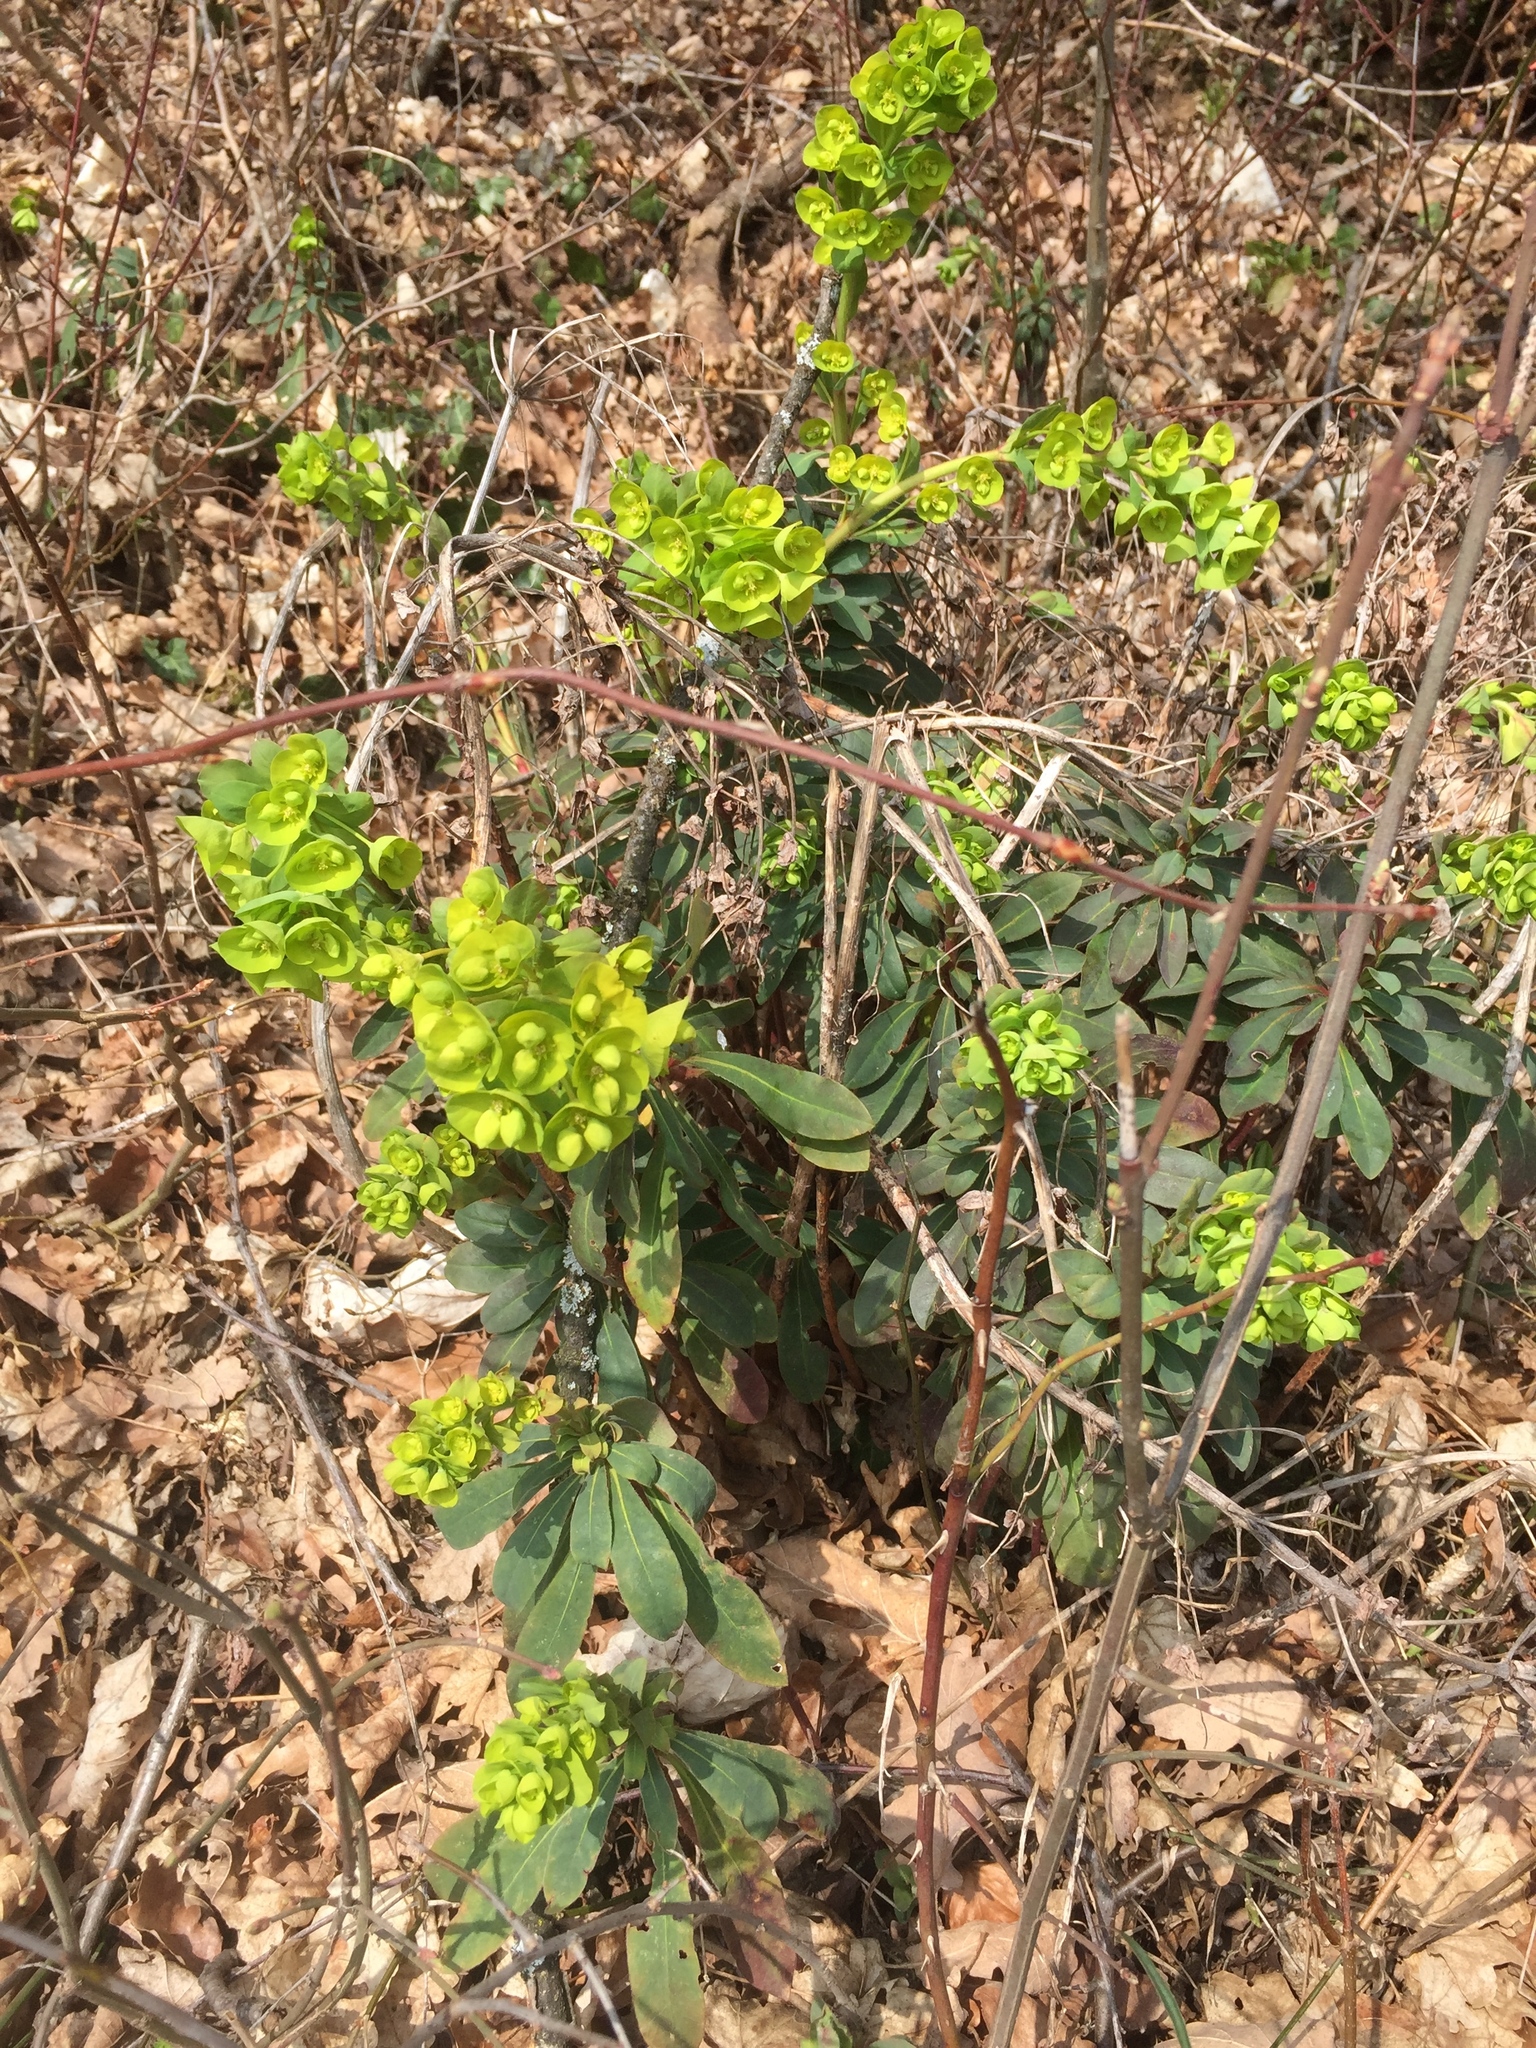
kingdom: Plantae
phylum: Tracheophyta
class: Magnoliopsida
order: Malpighiales
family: Euphorbiaceae
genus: Euphorbia
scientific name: Euphorbia amygdaloides
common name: Wood spurge
